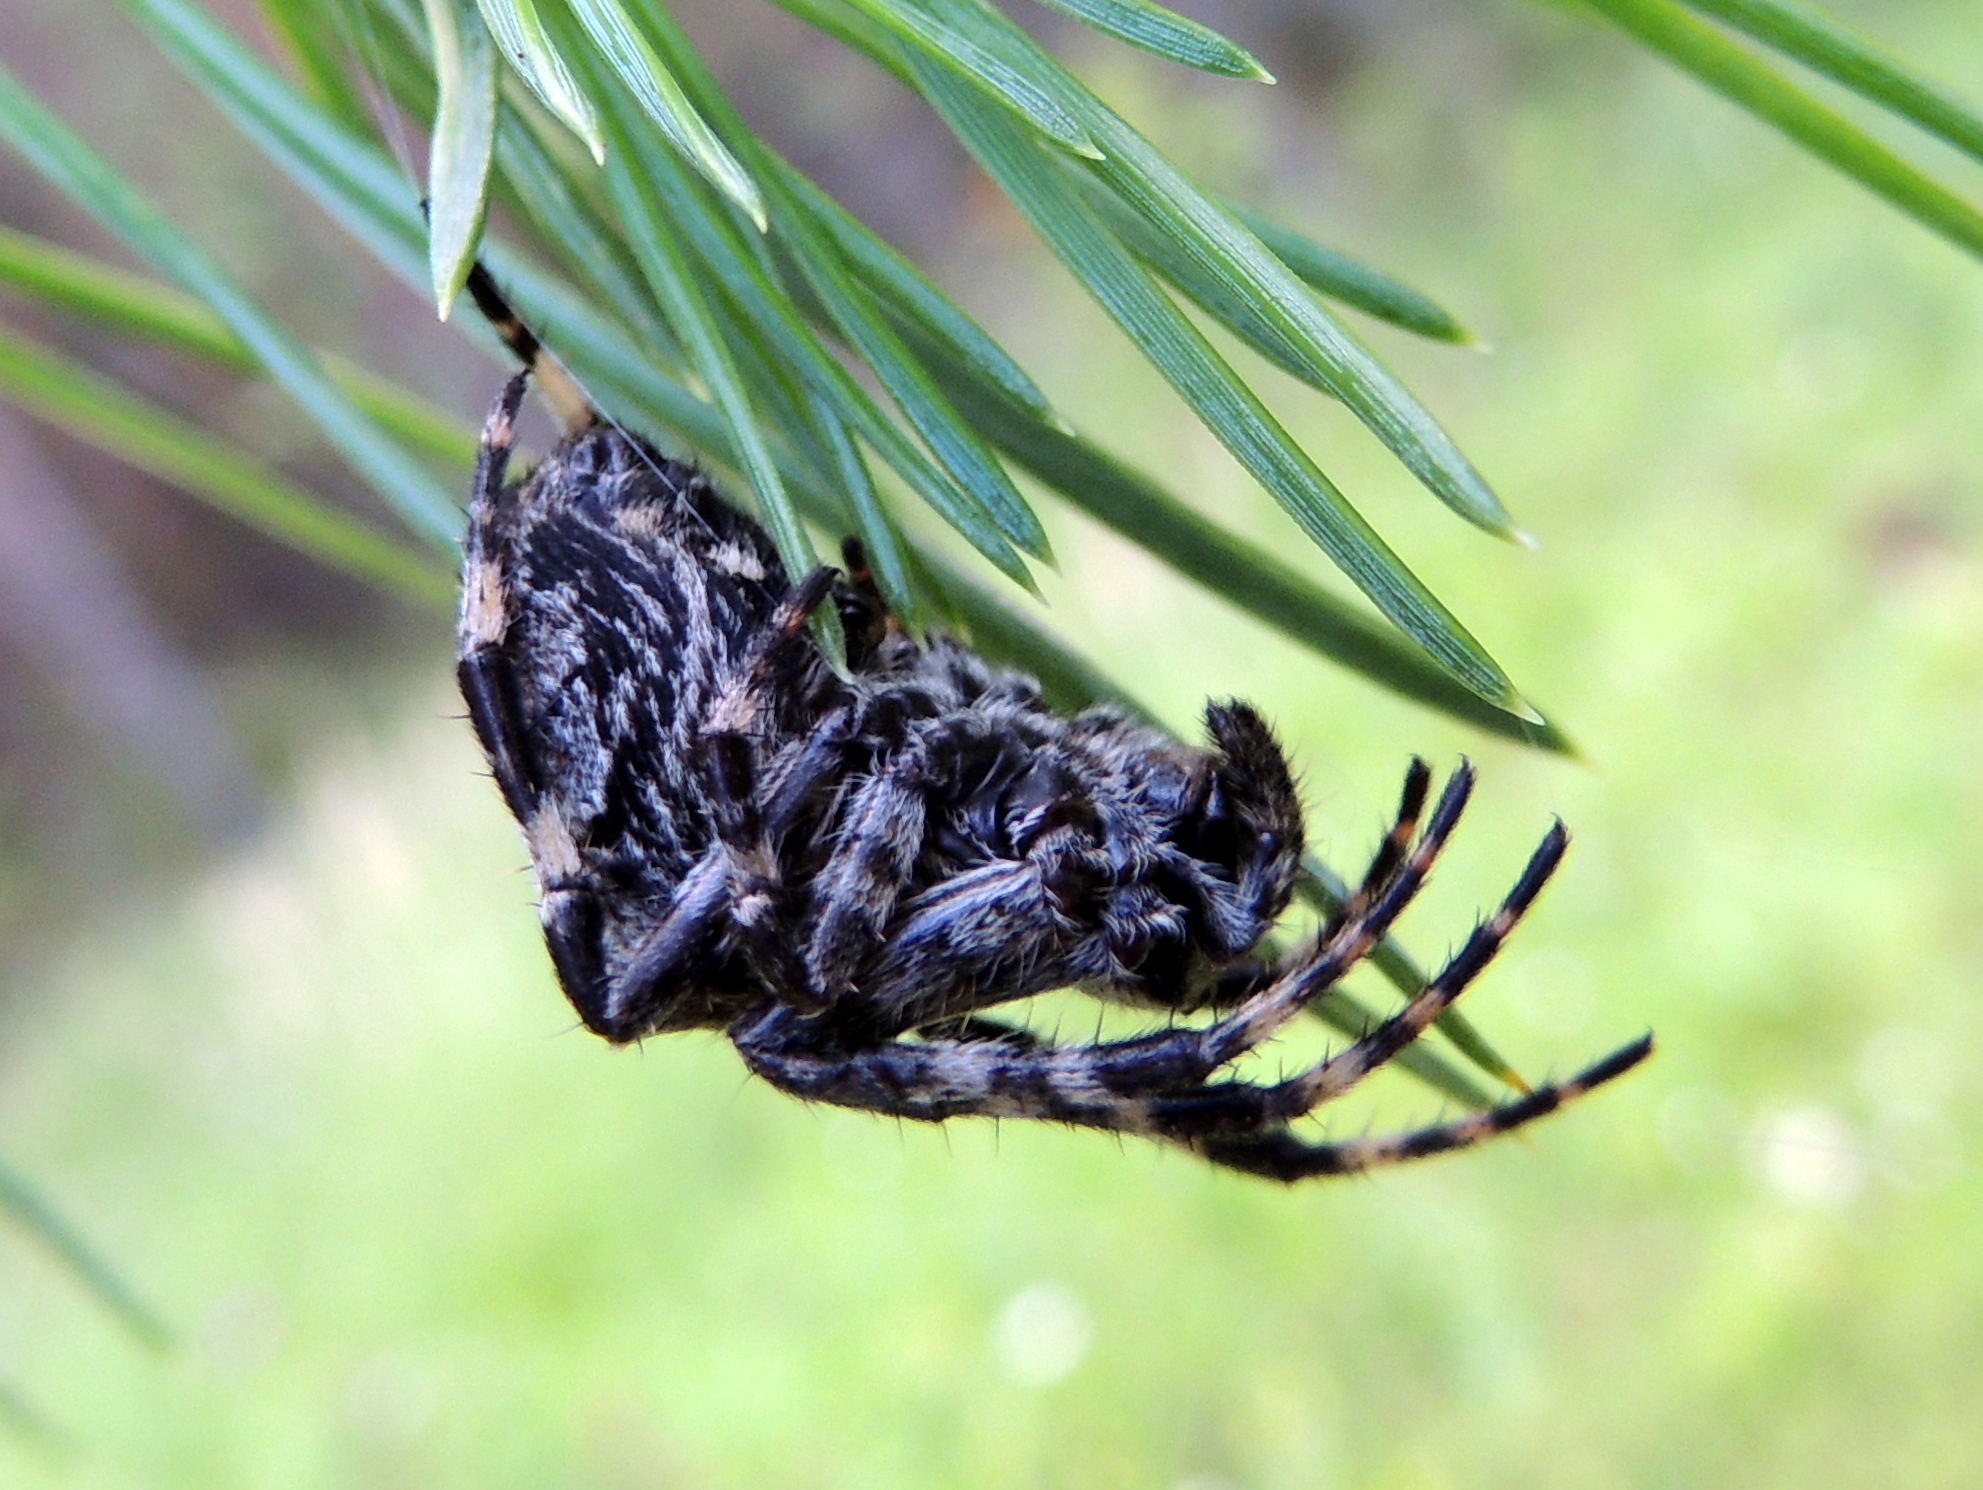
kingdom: Animalia
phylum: Arthropoda
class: Arachnida
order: Araneae
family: Araneidae
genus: Araneus
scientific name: Araneus angulatus
